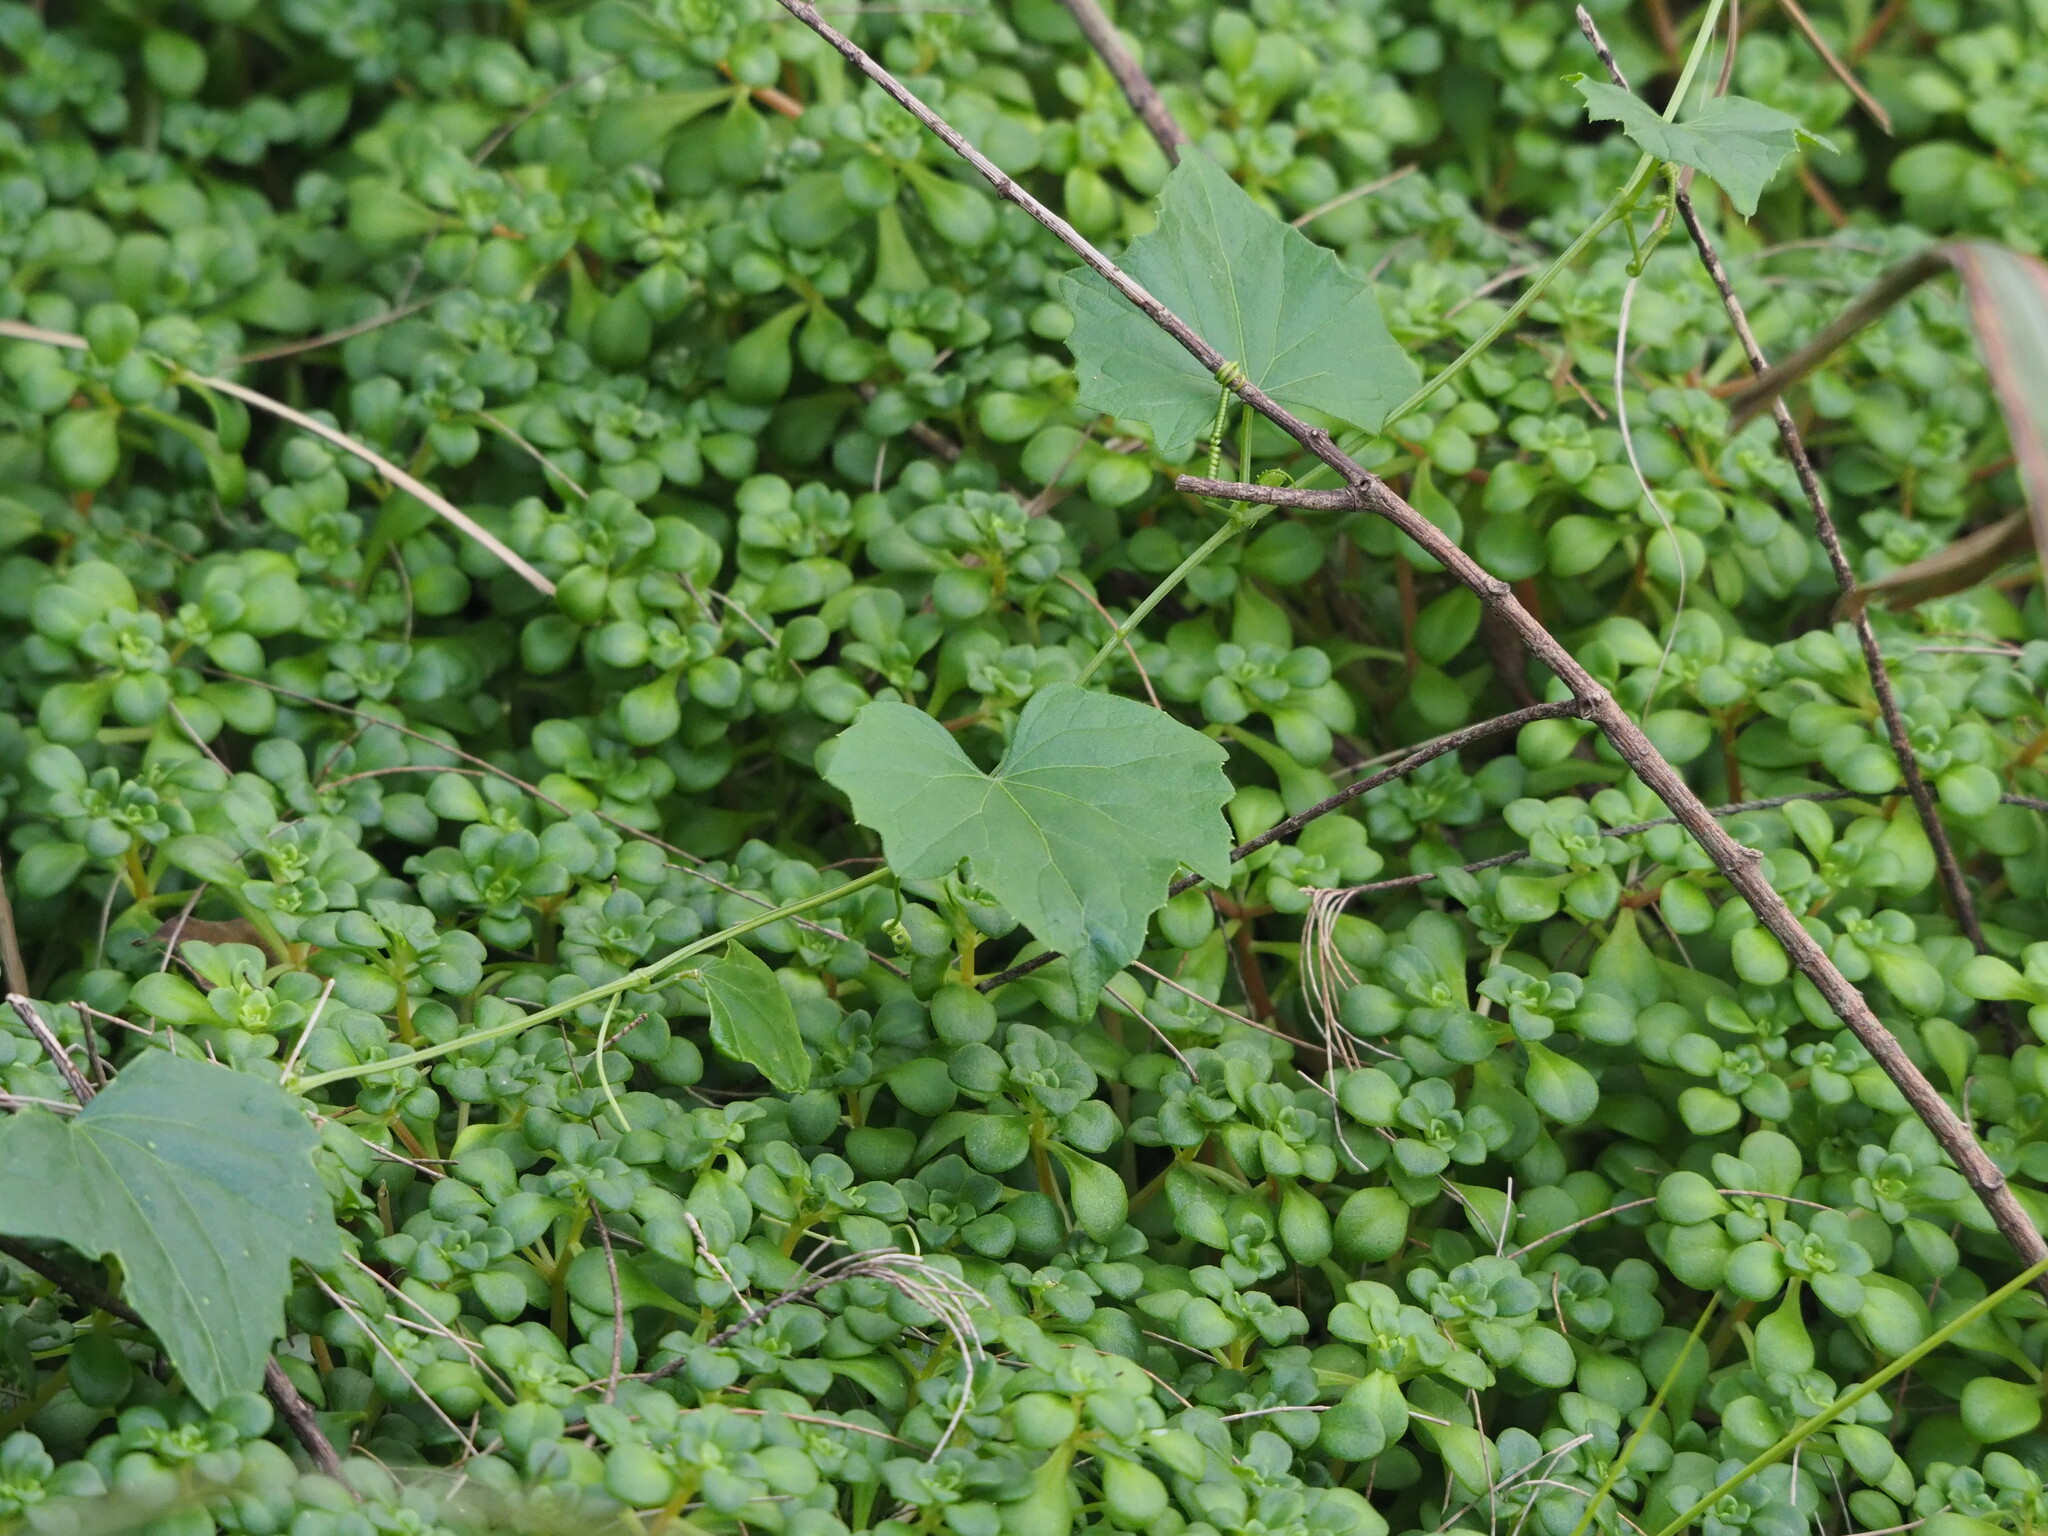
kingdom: Plantae
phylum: Tracheophyta
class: Magnoliopsida
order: Cucurbitales
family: Cucurbitaceae
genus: Zehneria
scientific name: Zehneria guamensis
